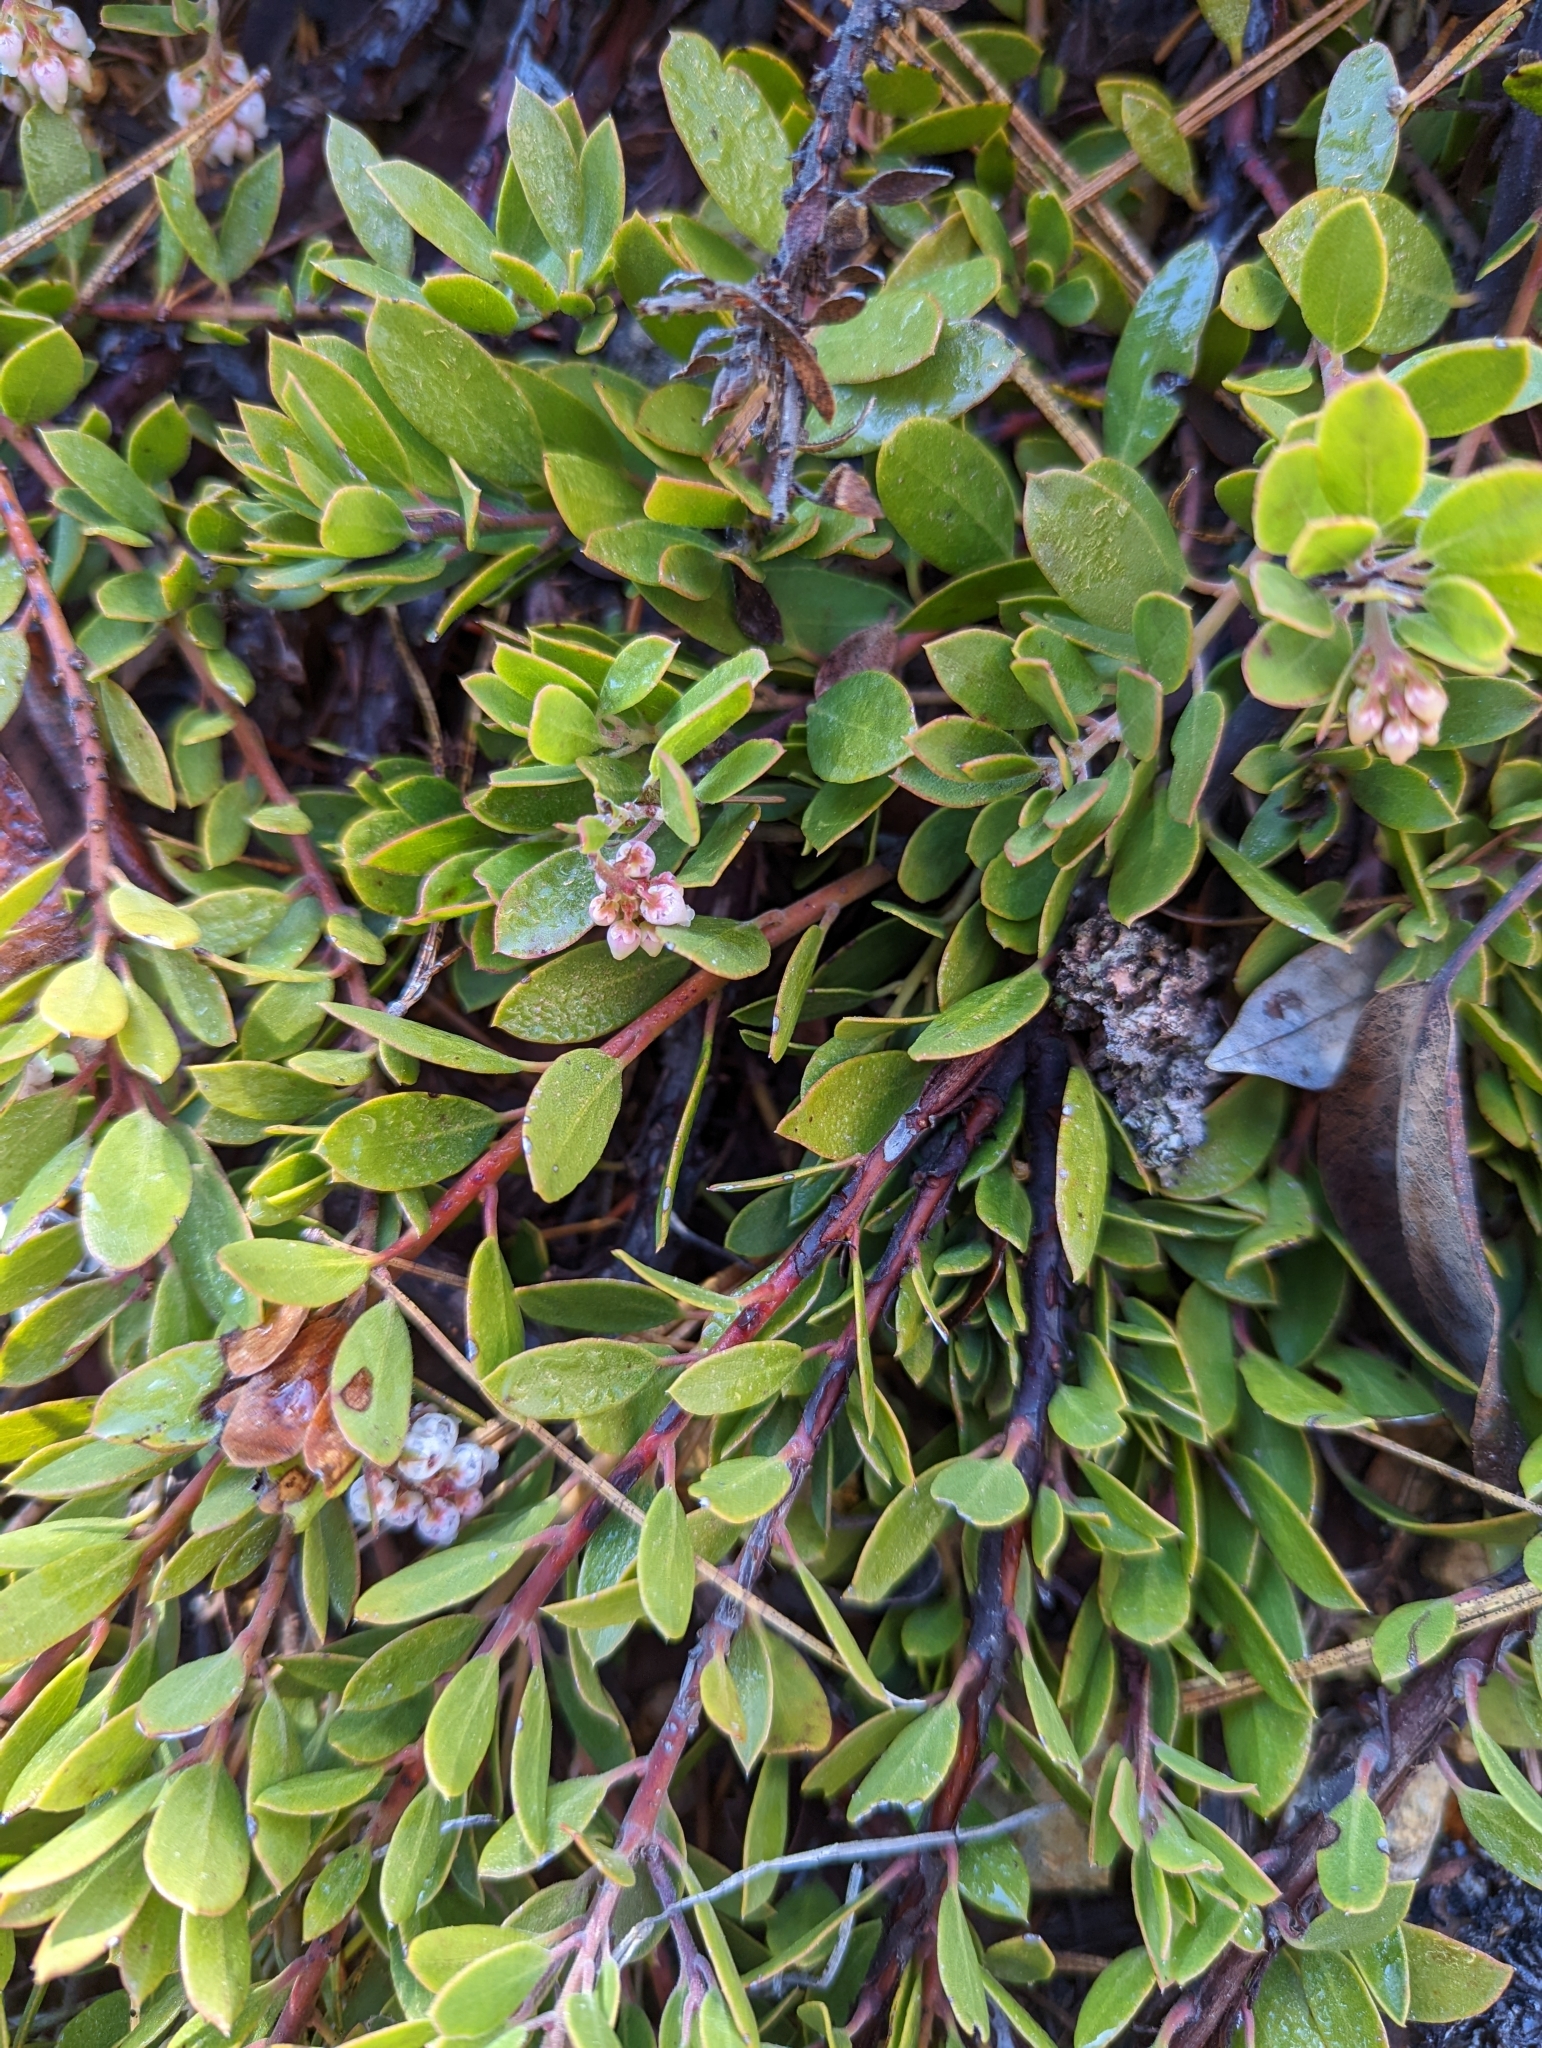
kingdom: Plantae
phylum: Tracheophyta
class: Magnoliopsida
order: Ericales
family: Ericaceae
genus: Arctostaphylos
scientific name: Arctostaphylos nevadensis
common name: Pinemat manzanita
